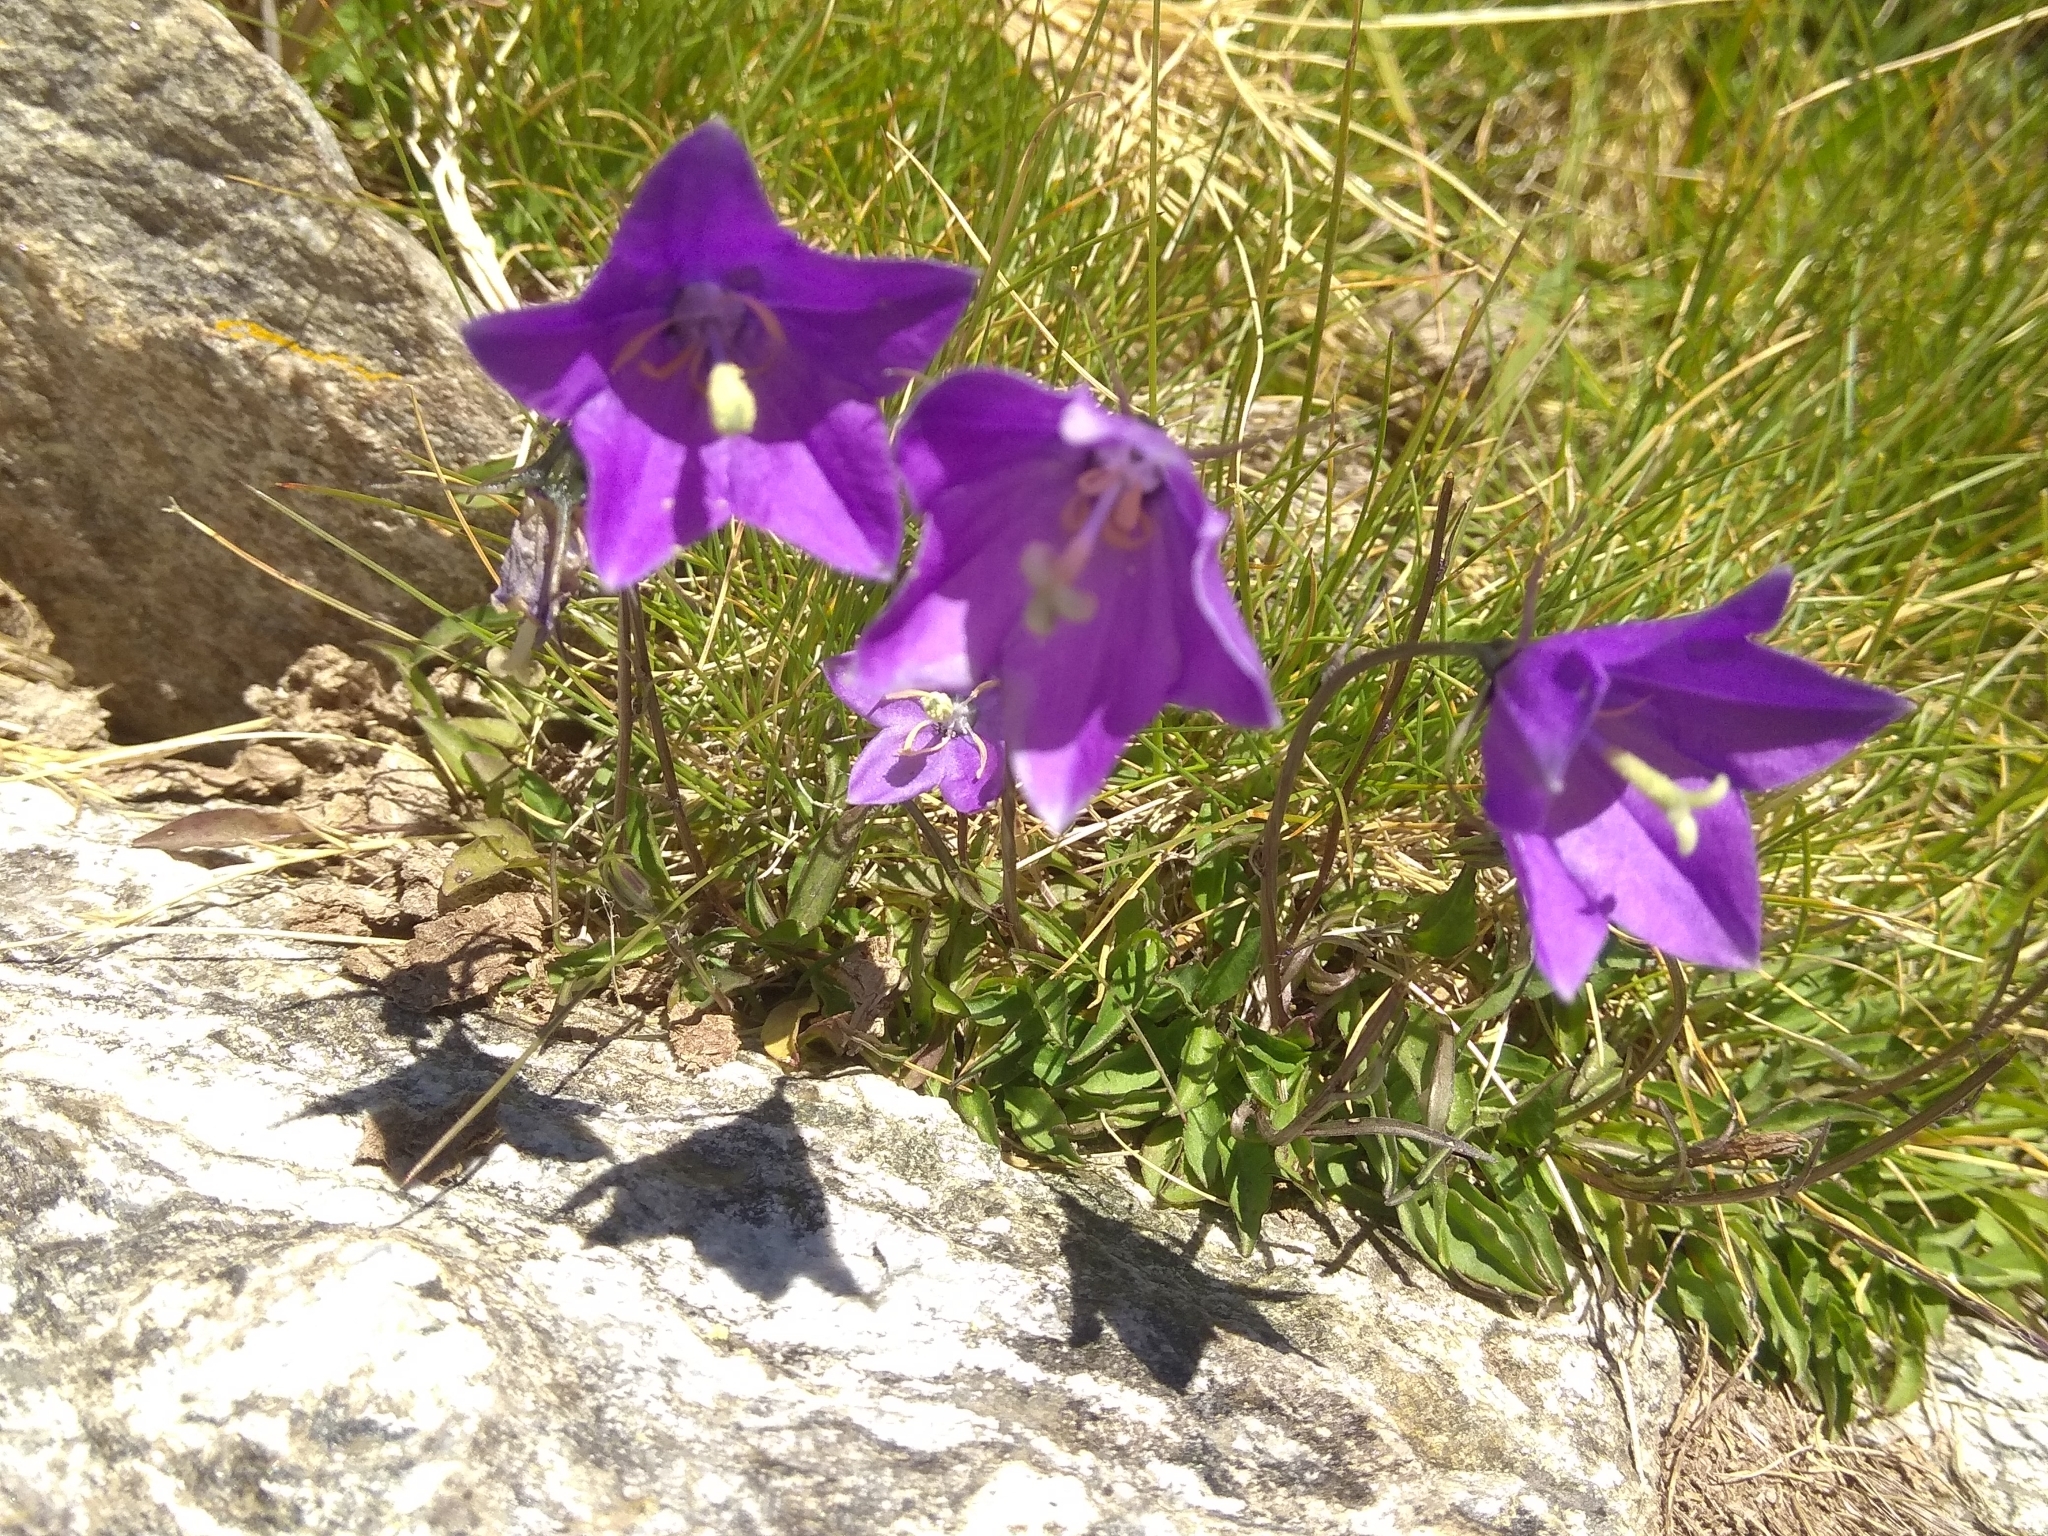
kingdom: Plantae
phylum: Tracheophyta
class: Magnoliopsida
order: Asterales
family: Campanulaceae
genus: Campanula
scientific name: Campanula herminii
